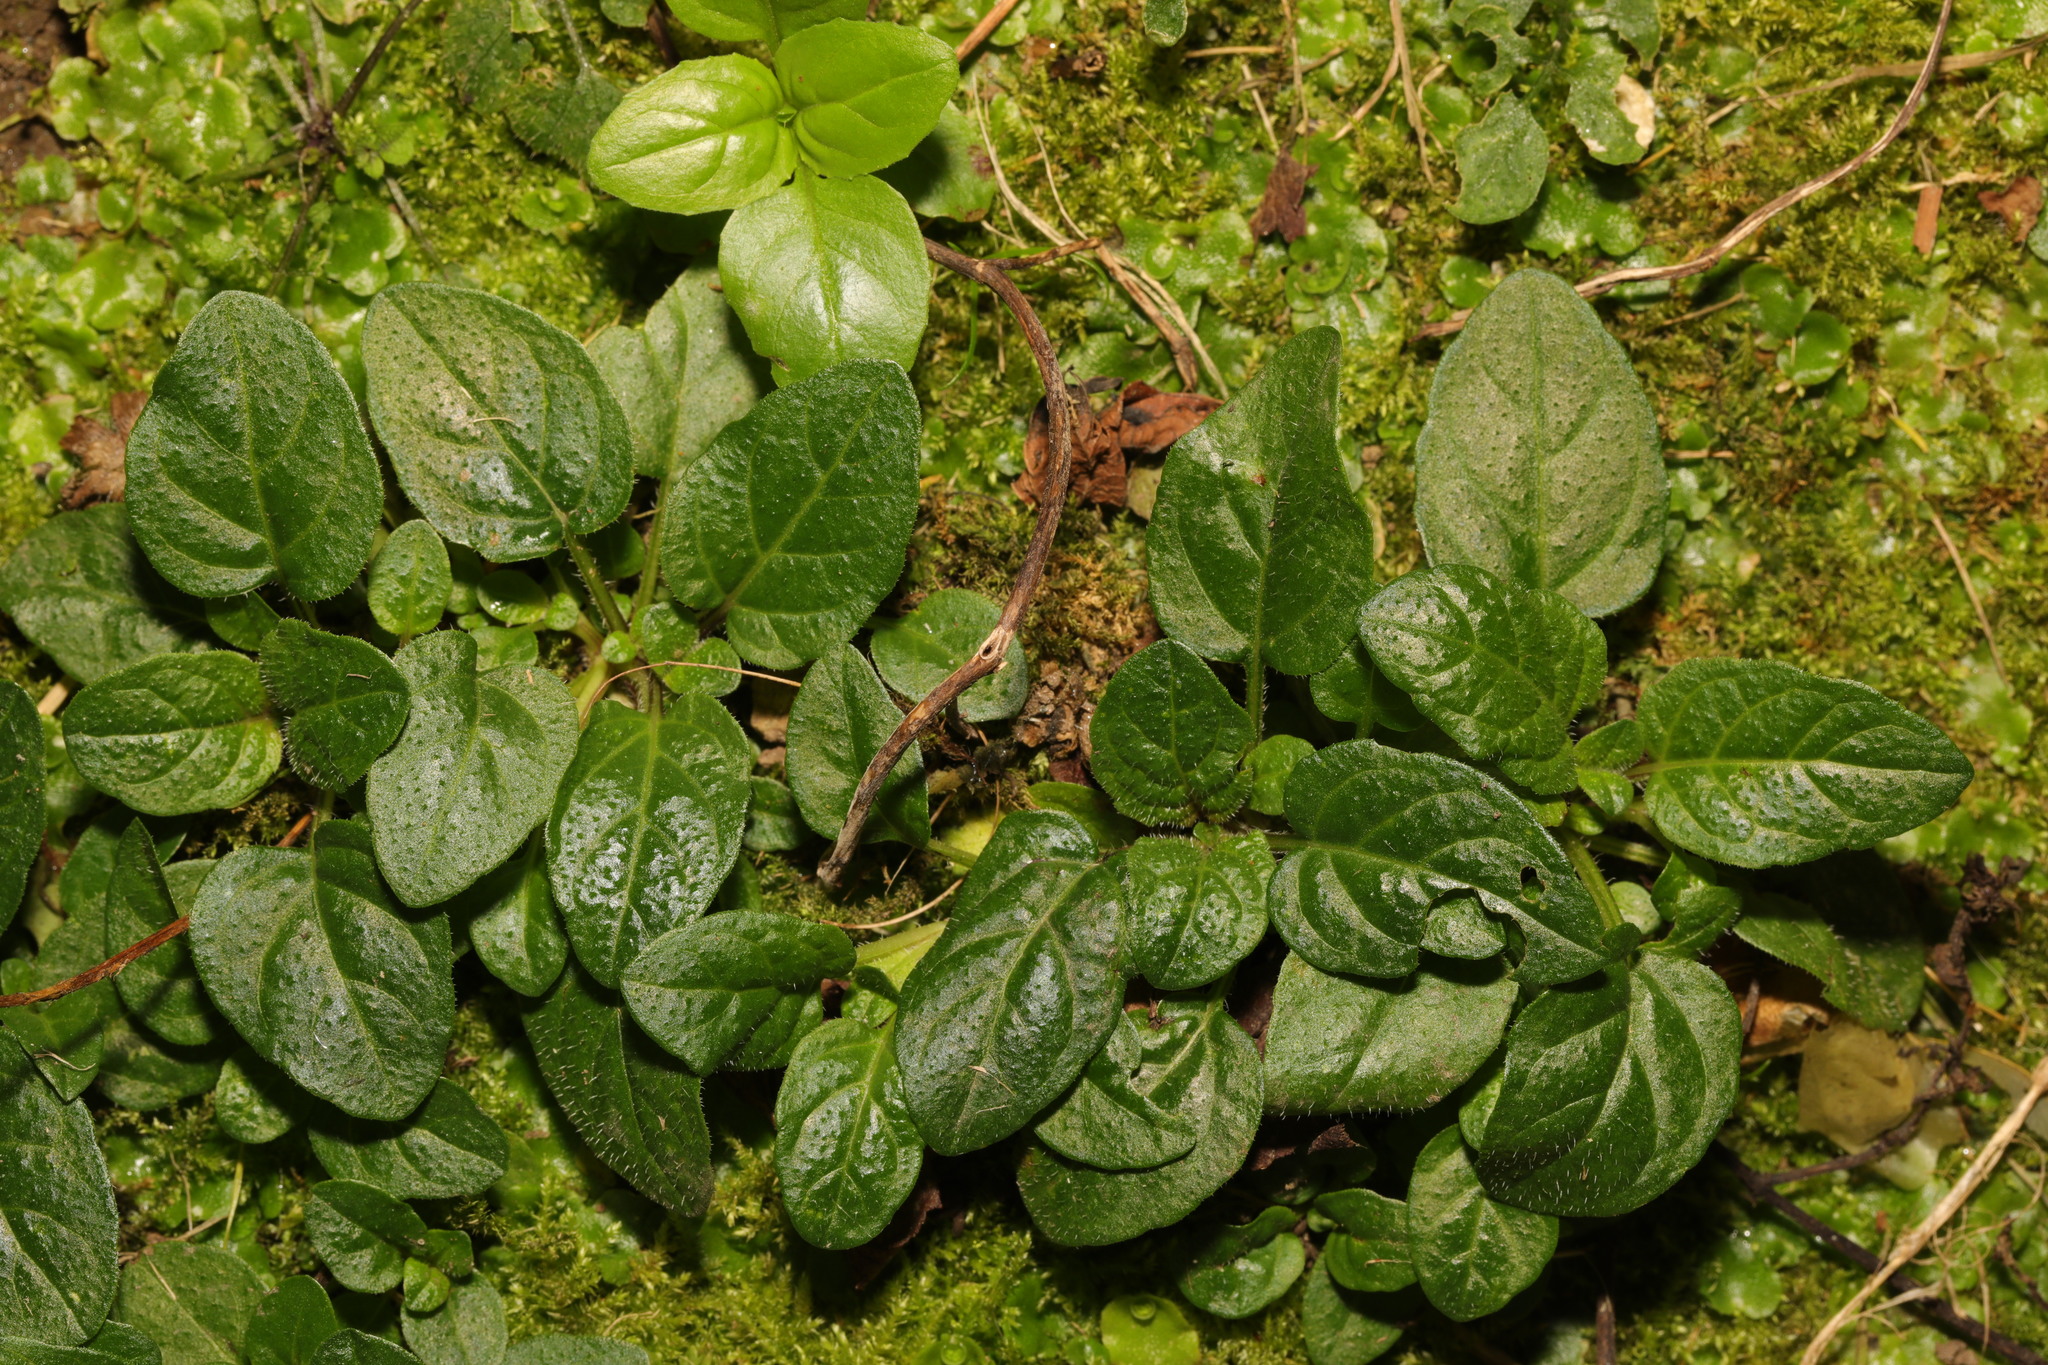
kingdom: Plantae
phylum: Tracheophyta
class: Magnoliopsida
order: Lamiales
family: Lamiaceae
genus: Prunella
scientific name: Prunella vulgaris
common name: Heal-all
